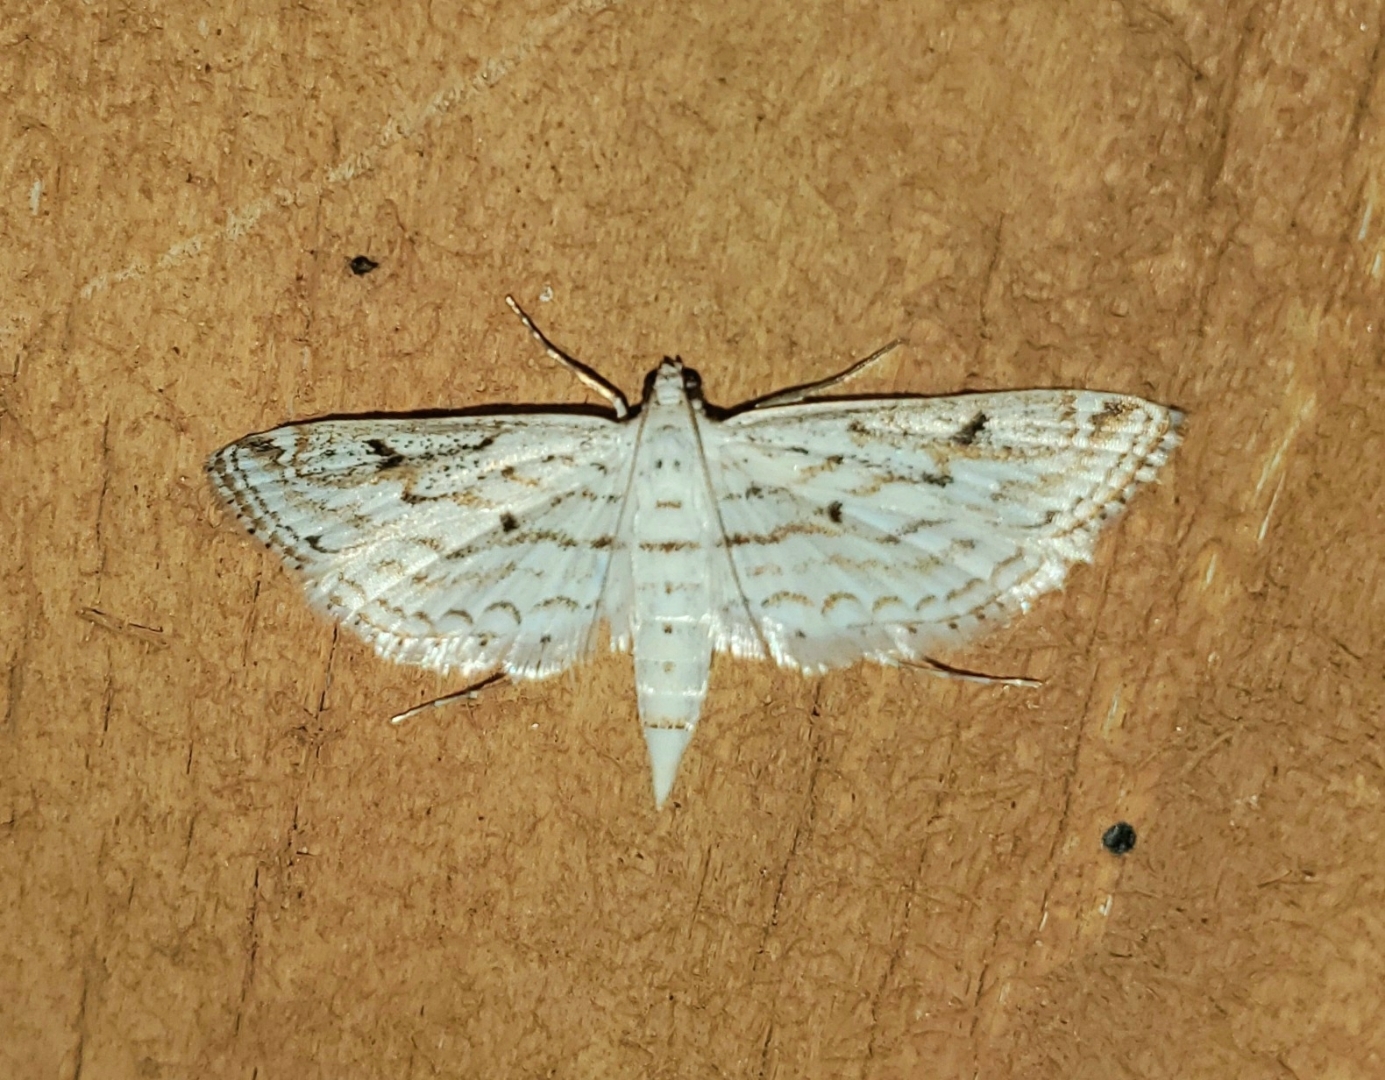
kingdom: Animalia
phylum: Arthropoda
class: Insecta
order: Lepidoptera
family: Crambidae
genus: Parapoynx
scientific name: Parapoynx allionealis
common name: Bladderwort casemaker
